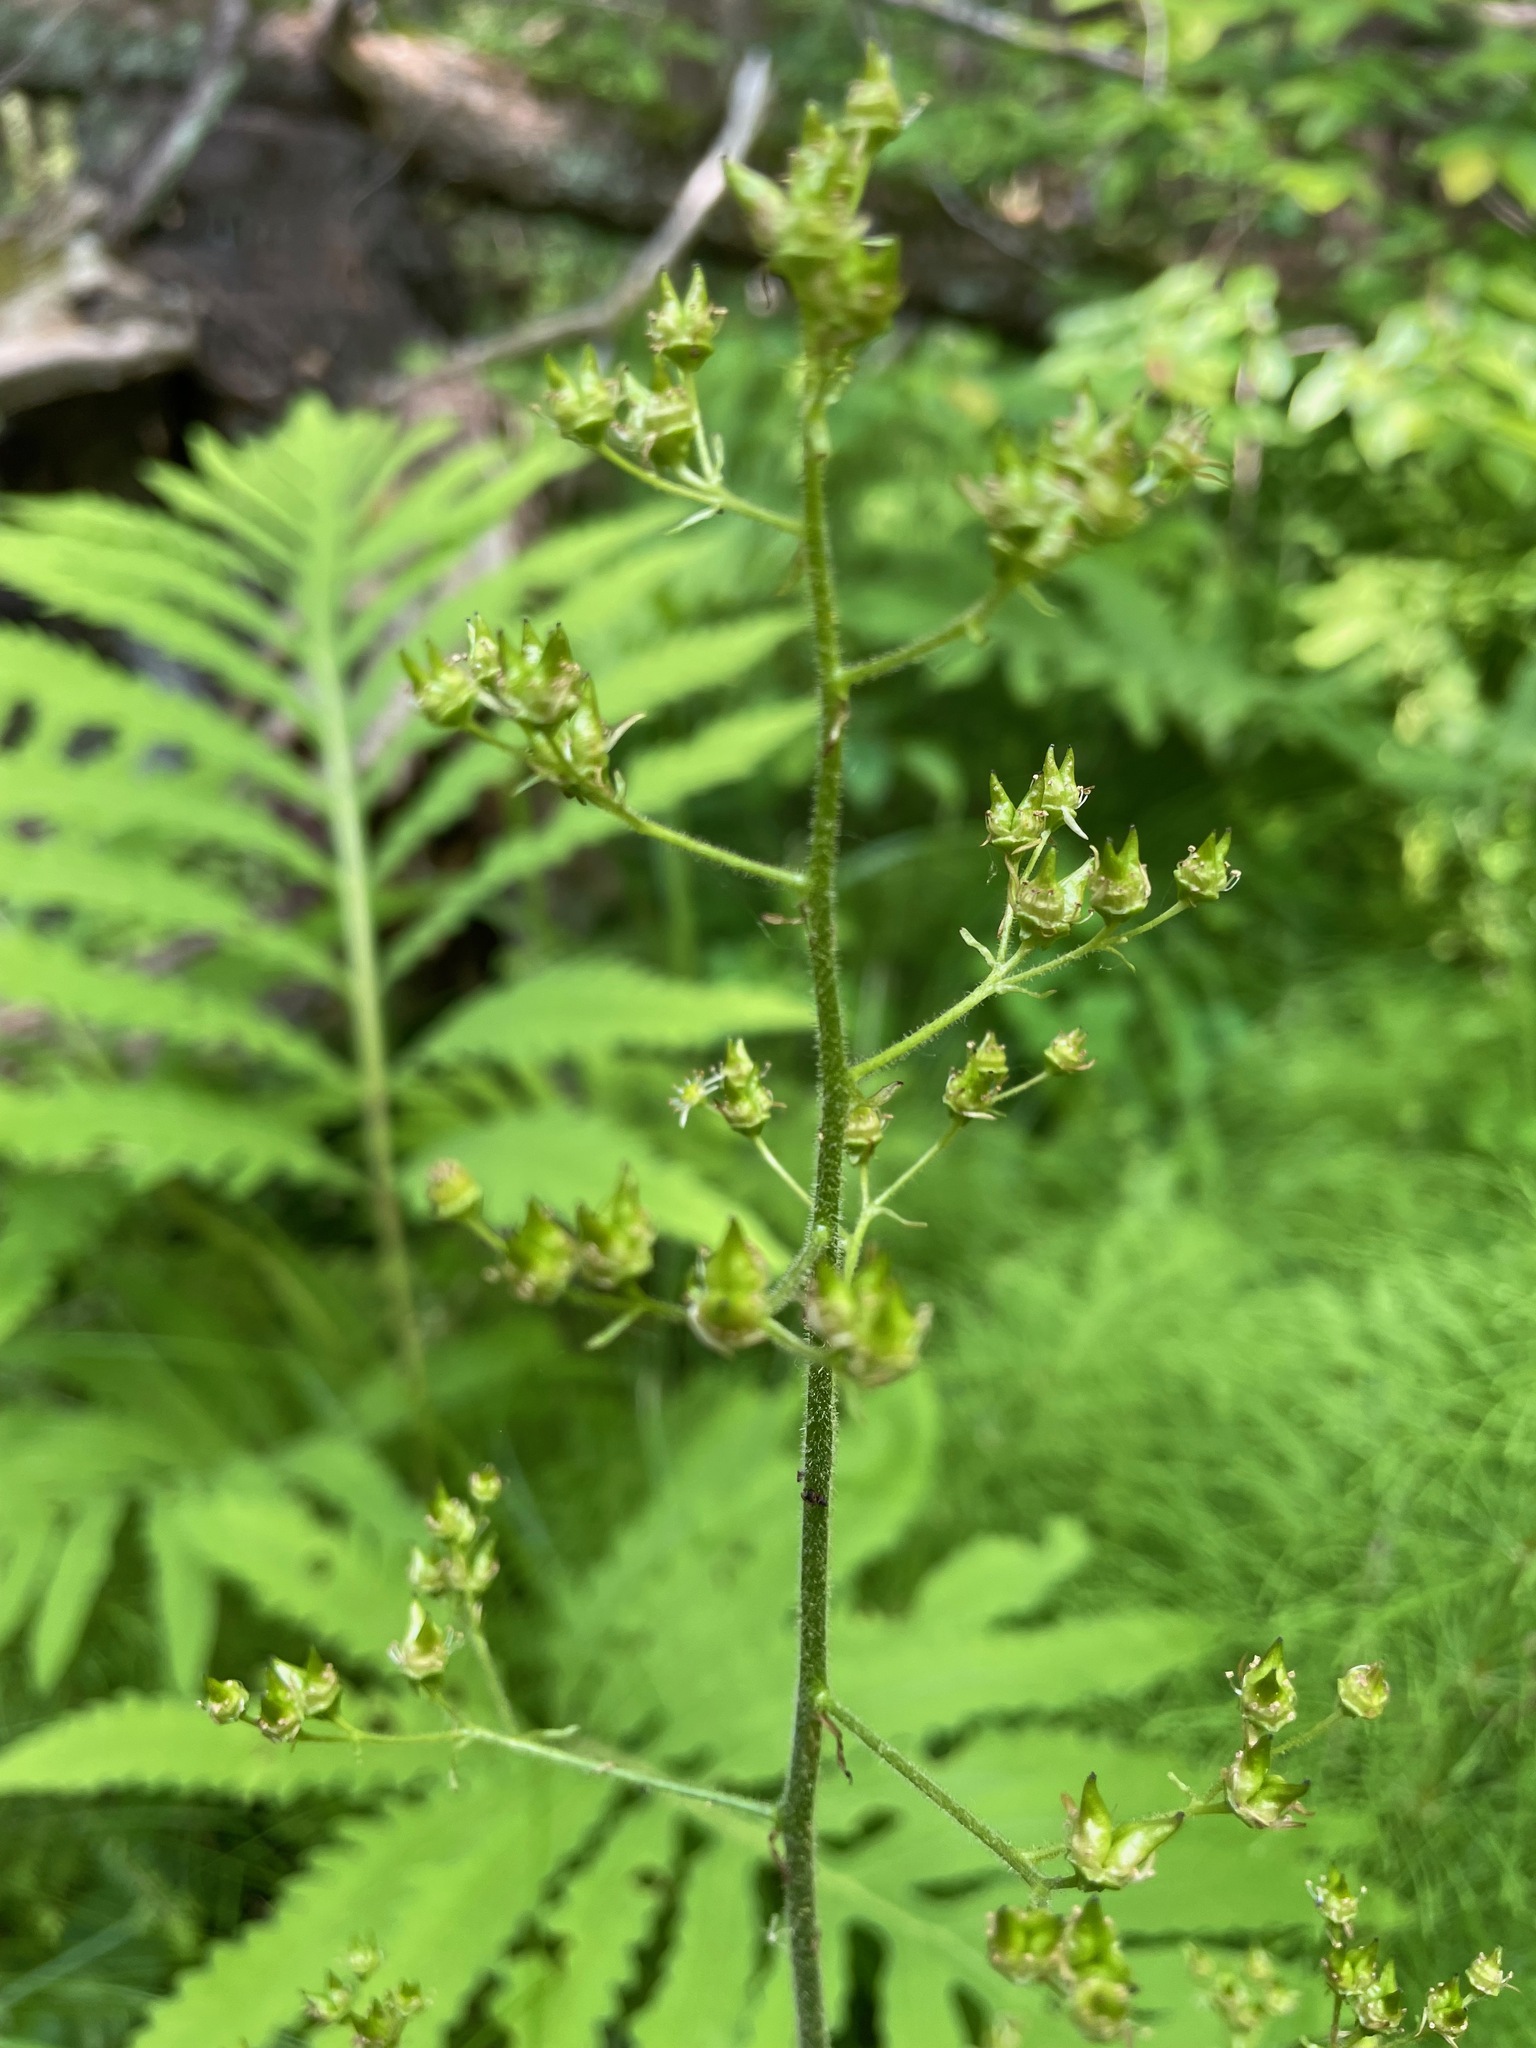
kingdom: Plantae
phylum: Tracheophyta
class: Magnoliopsida
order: Saxifragales
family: Saxifragaceae
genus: Micranthes
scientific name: Micranthes pensylvanica
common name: Marsh saxifrage
